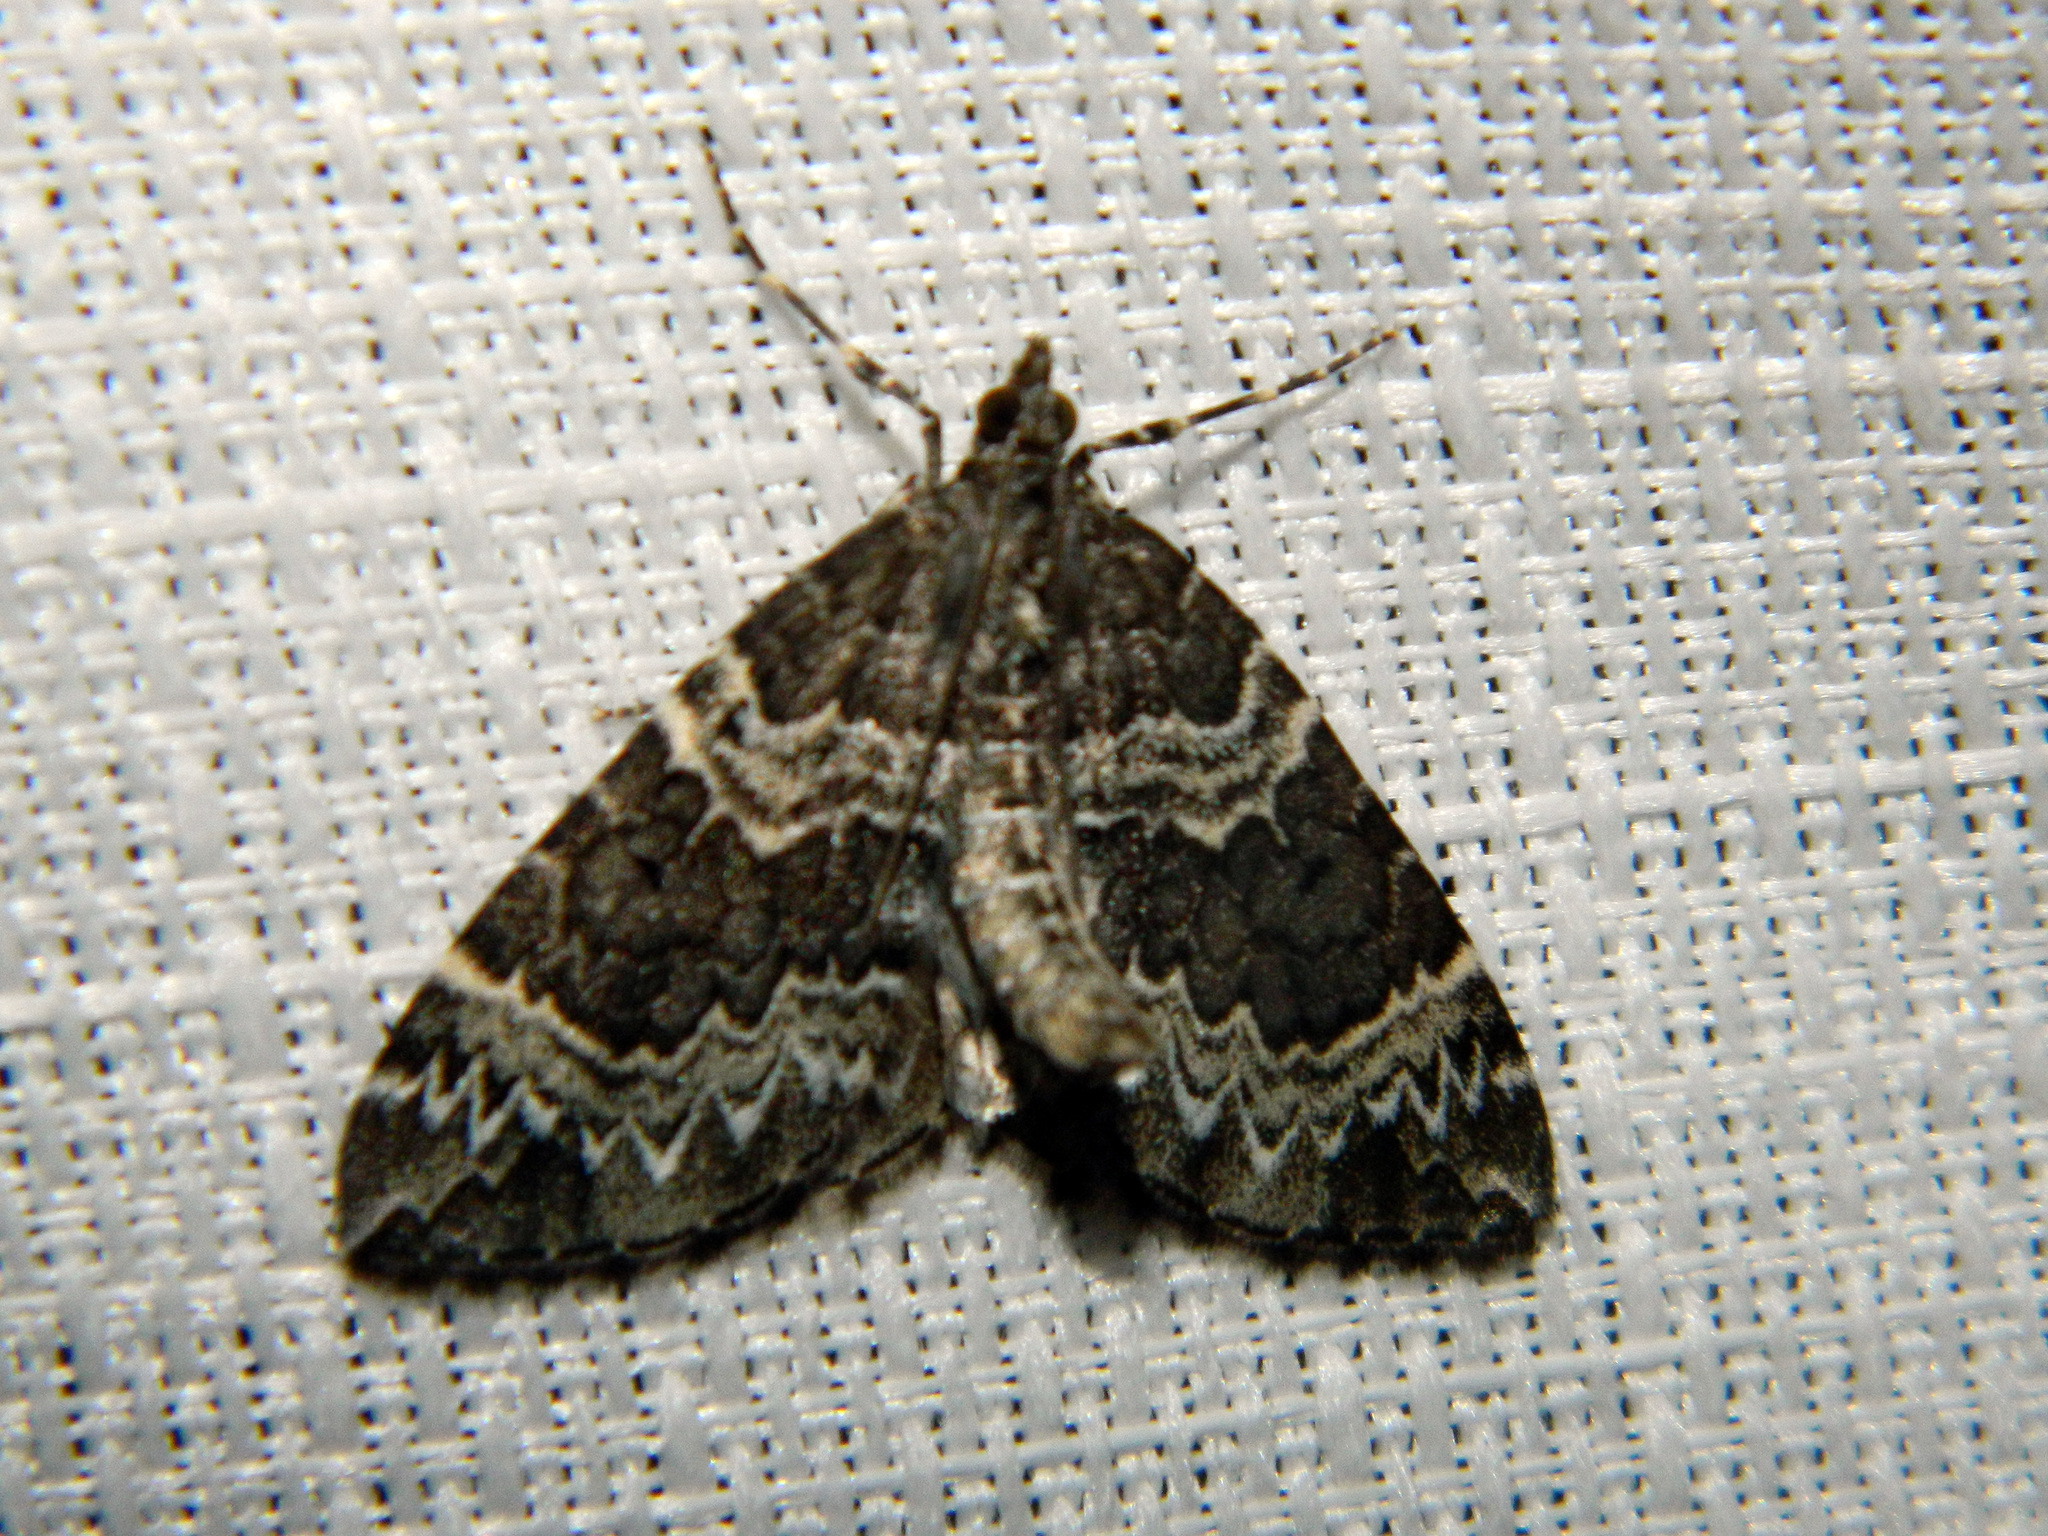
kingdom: Animalia
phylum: Arthropoda
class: Insecta
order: Lepidoptera
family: Geometridae
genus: Eulithis
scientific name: Eulithis explanata
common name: White eulithis
